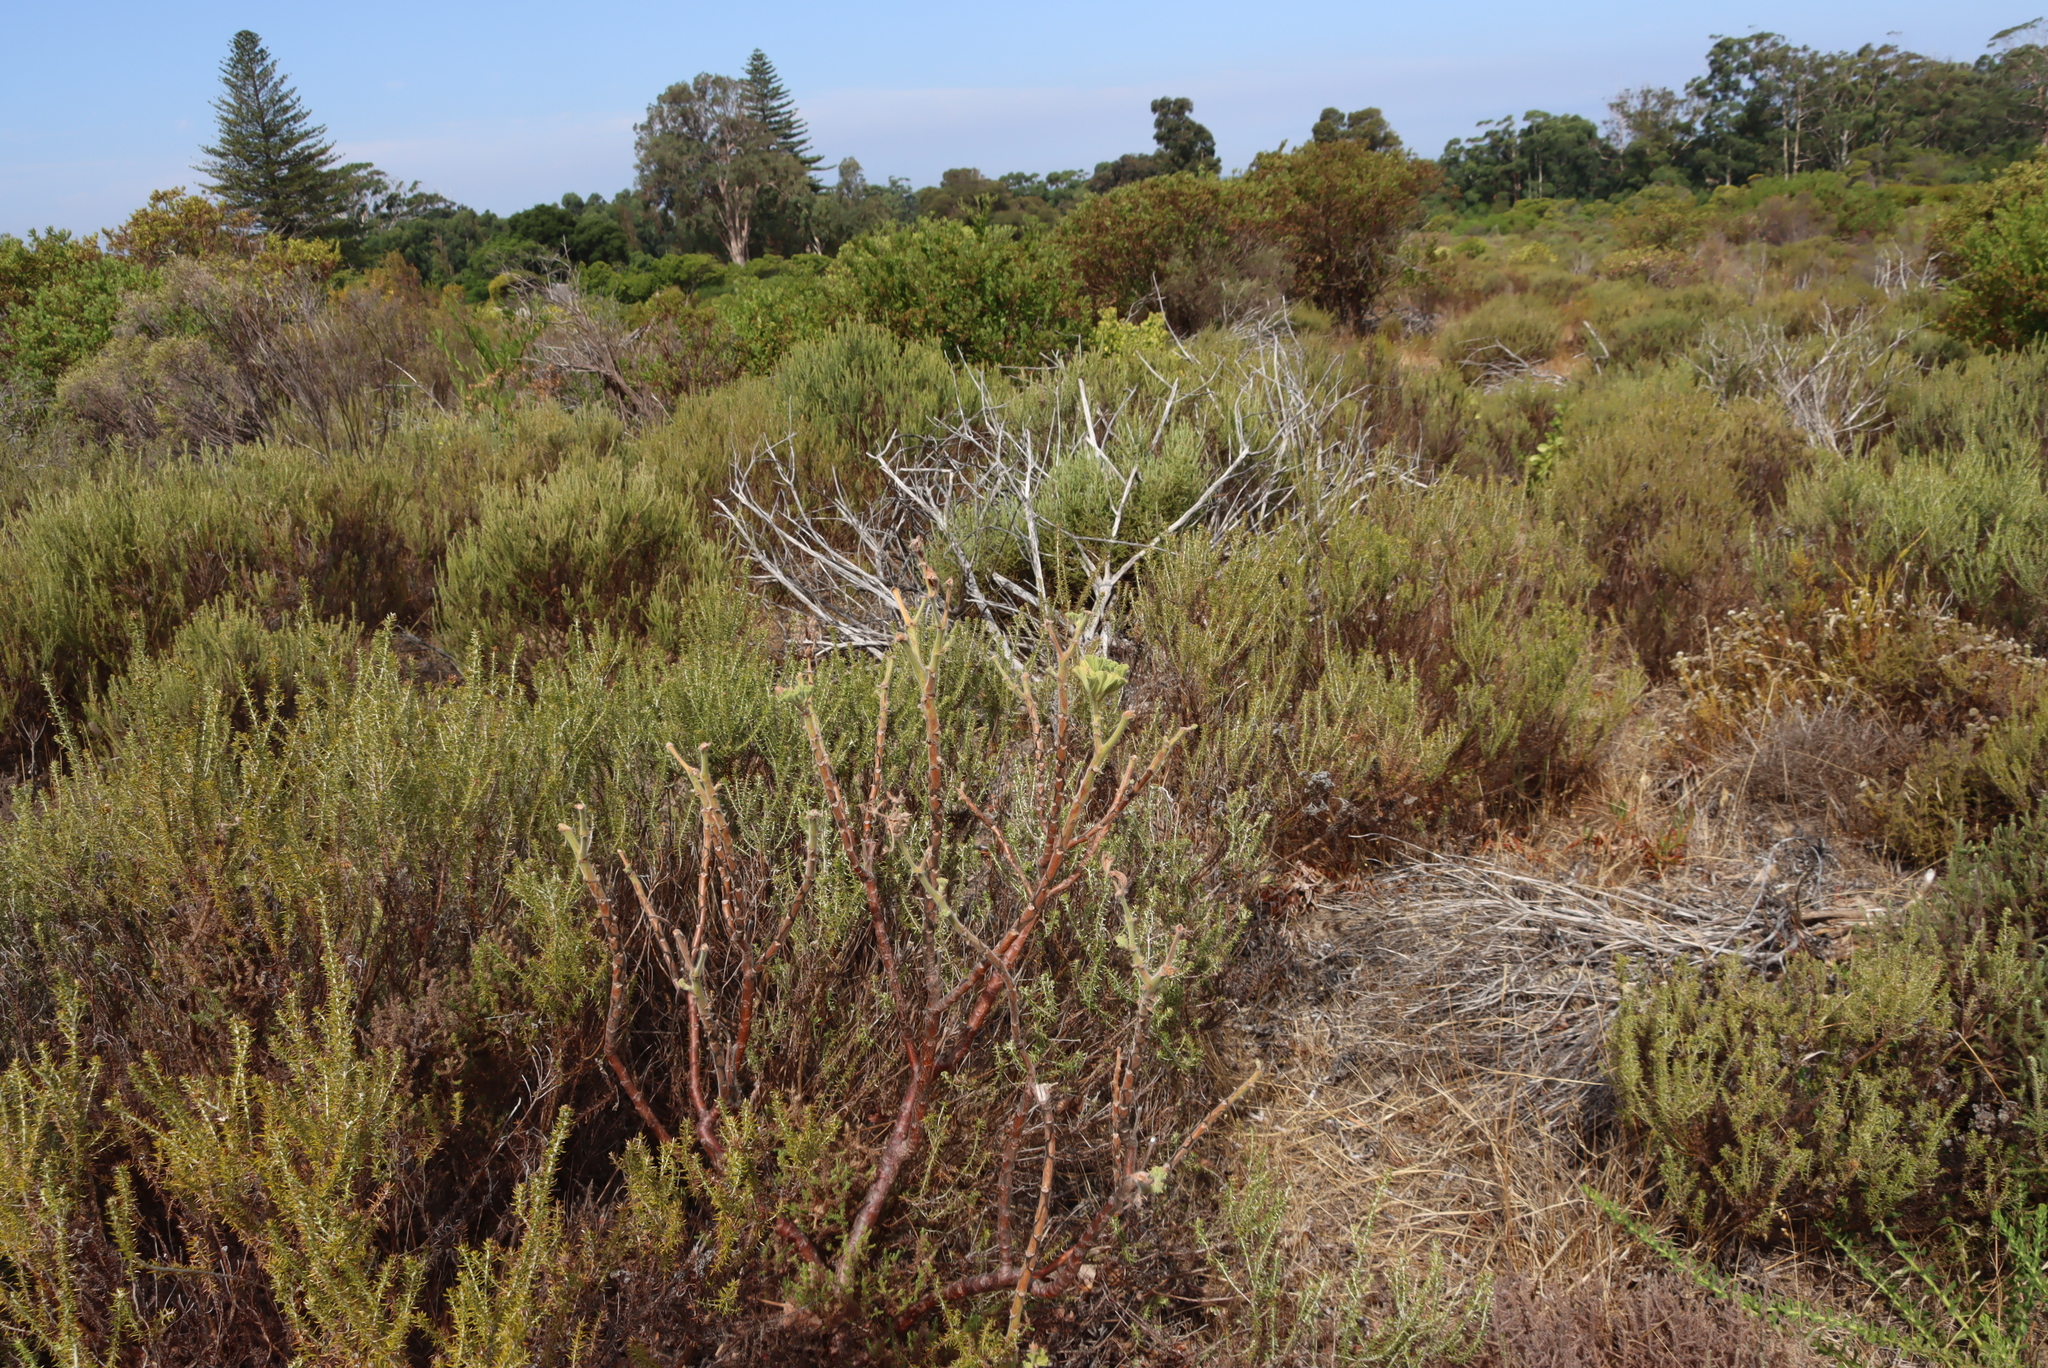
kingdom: Plantae
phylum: Tracheophyta
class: Magnoliopsida
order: Geraniales
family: Geraniaceae
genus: Pelargonium
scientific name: Pelargonium cucullatum
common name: Tree pelargonium
